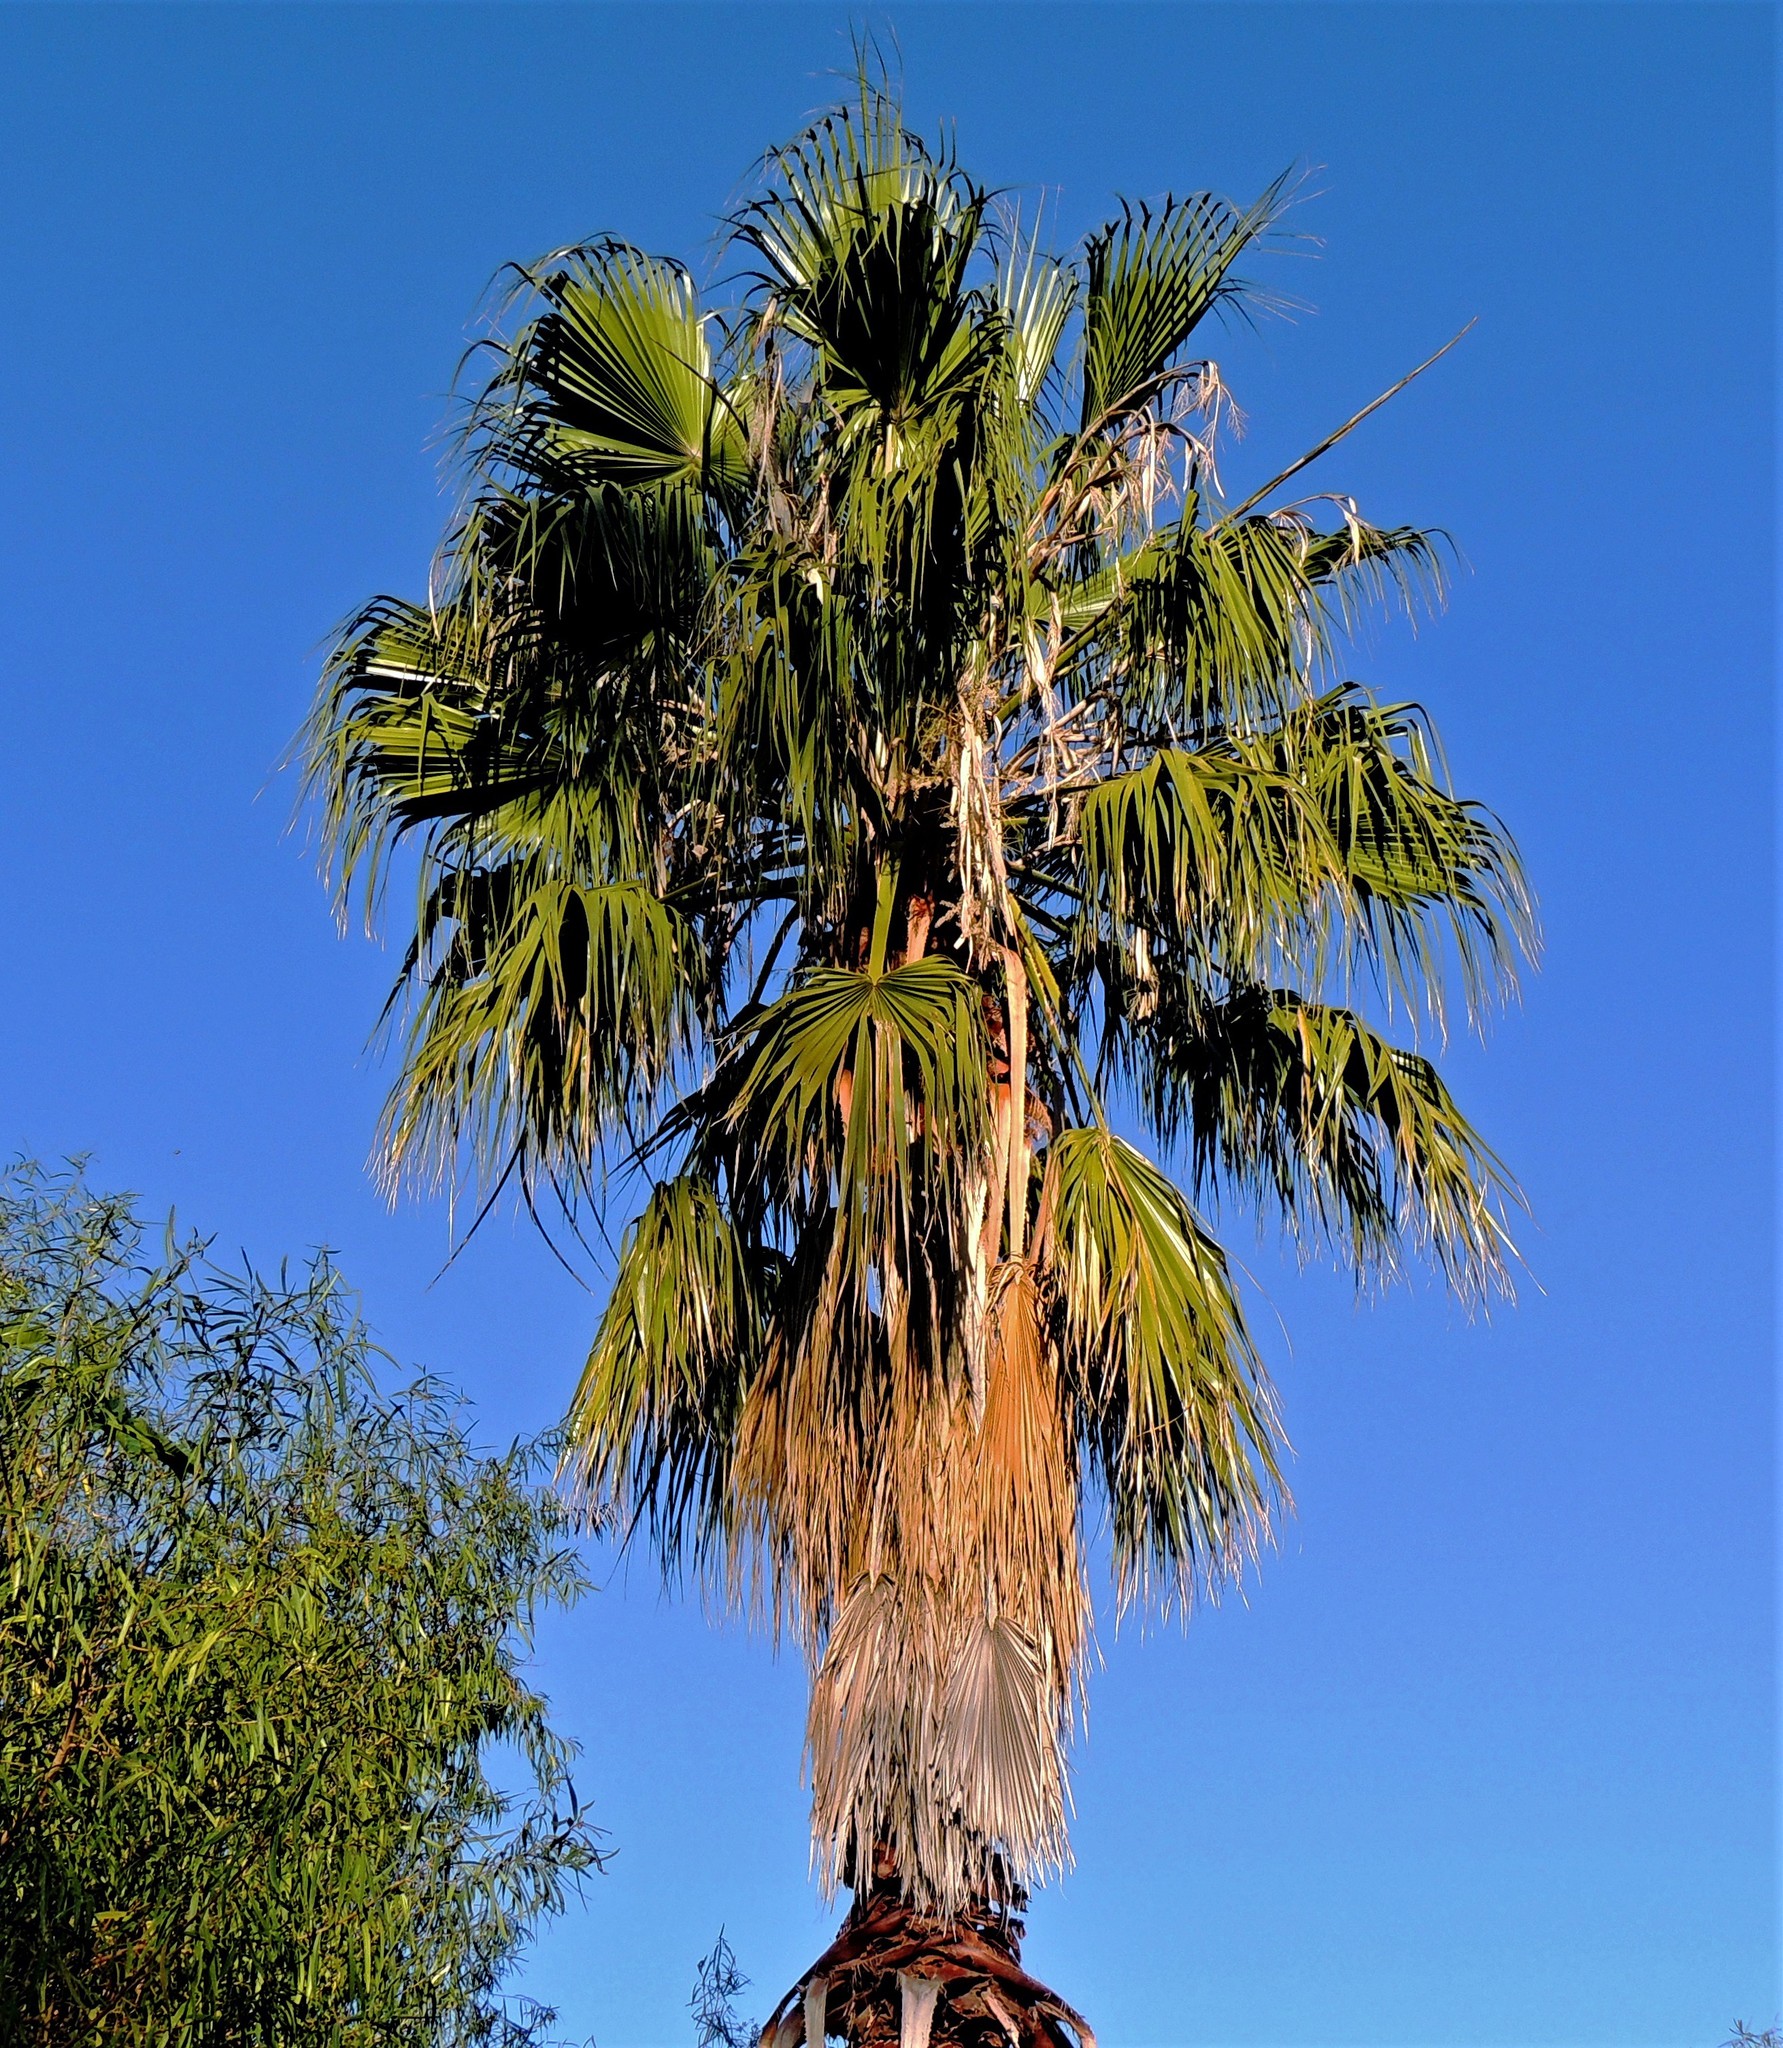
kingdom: Plantae
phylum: Tracheophyta
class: Liliopsida
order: Arecales
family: Arecaceae
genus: Washingtonia
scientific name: Washingtonia robusta
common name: Mexican fan palm
